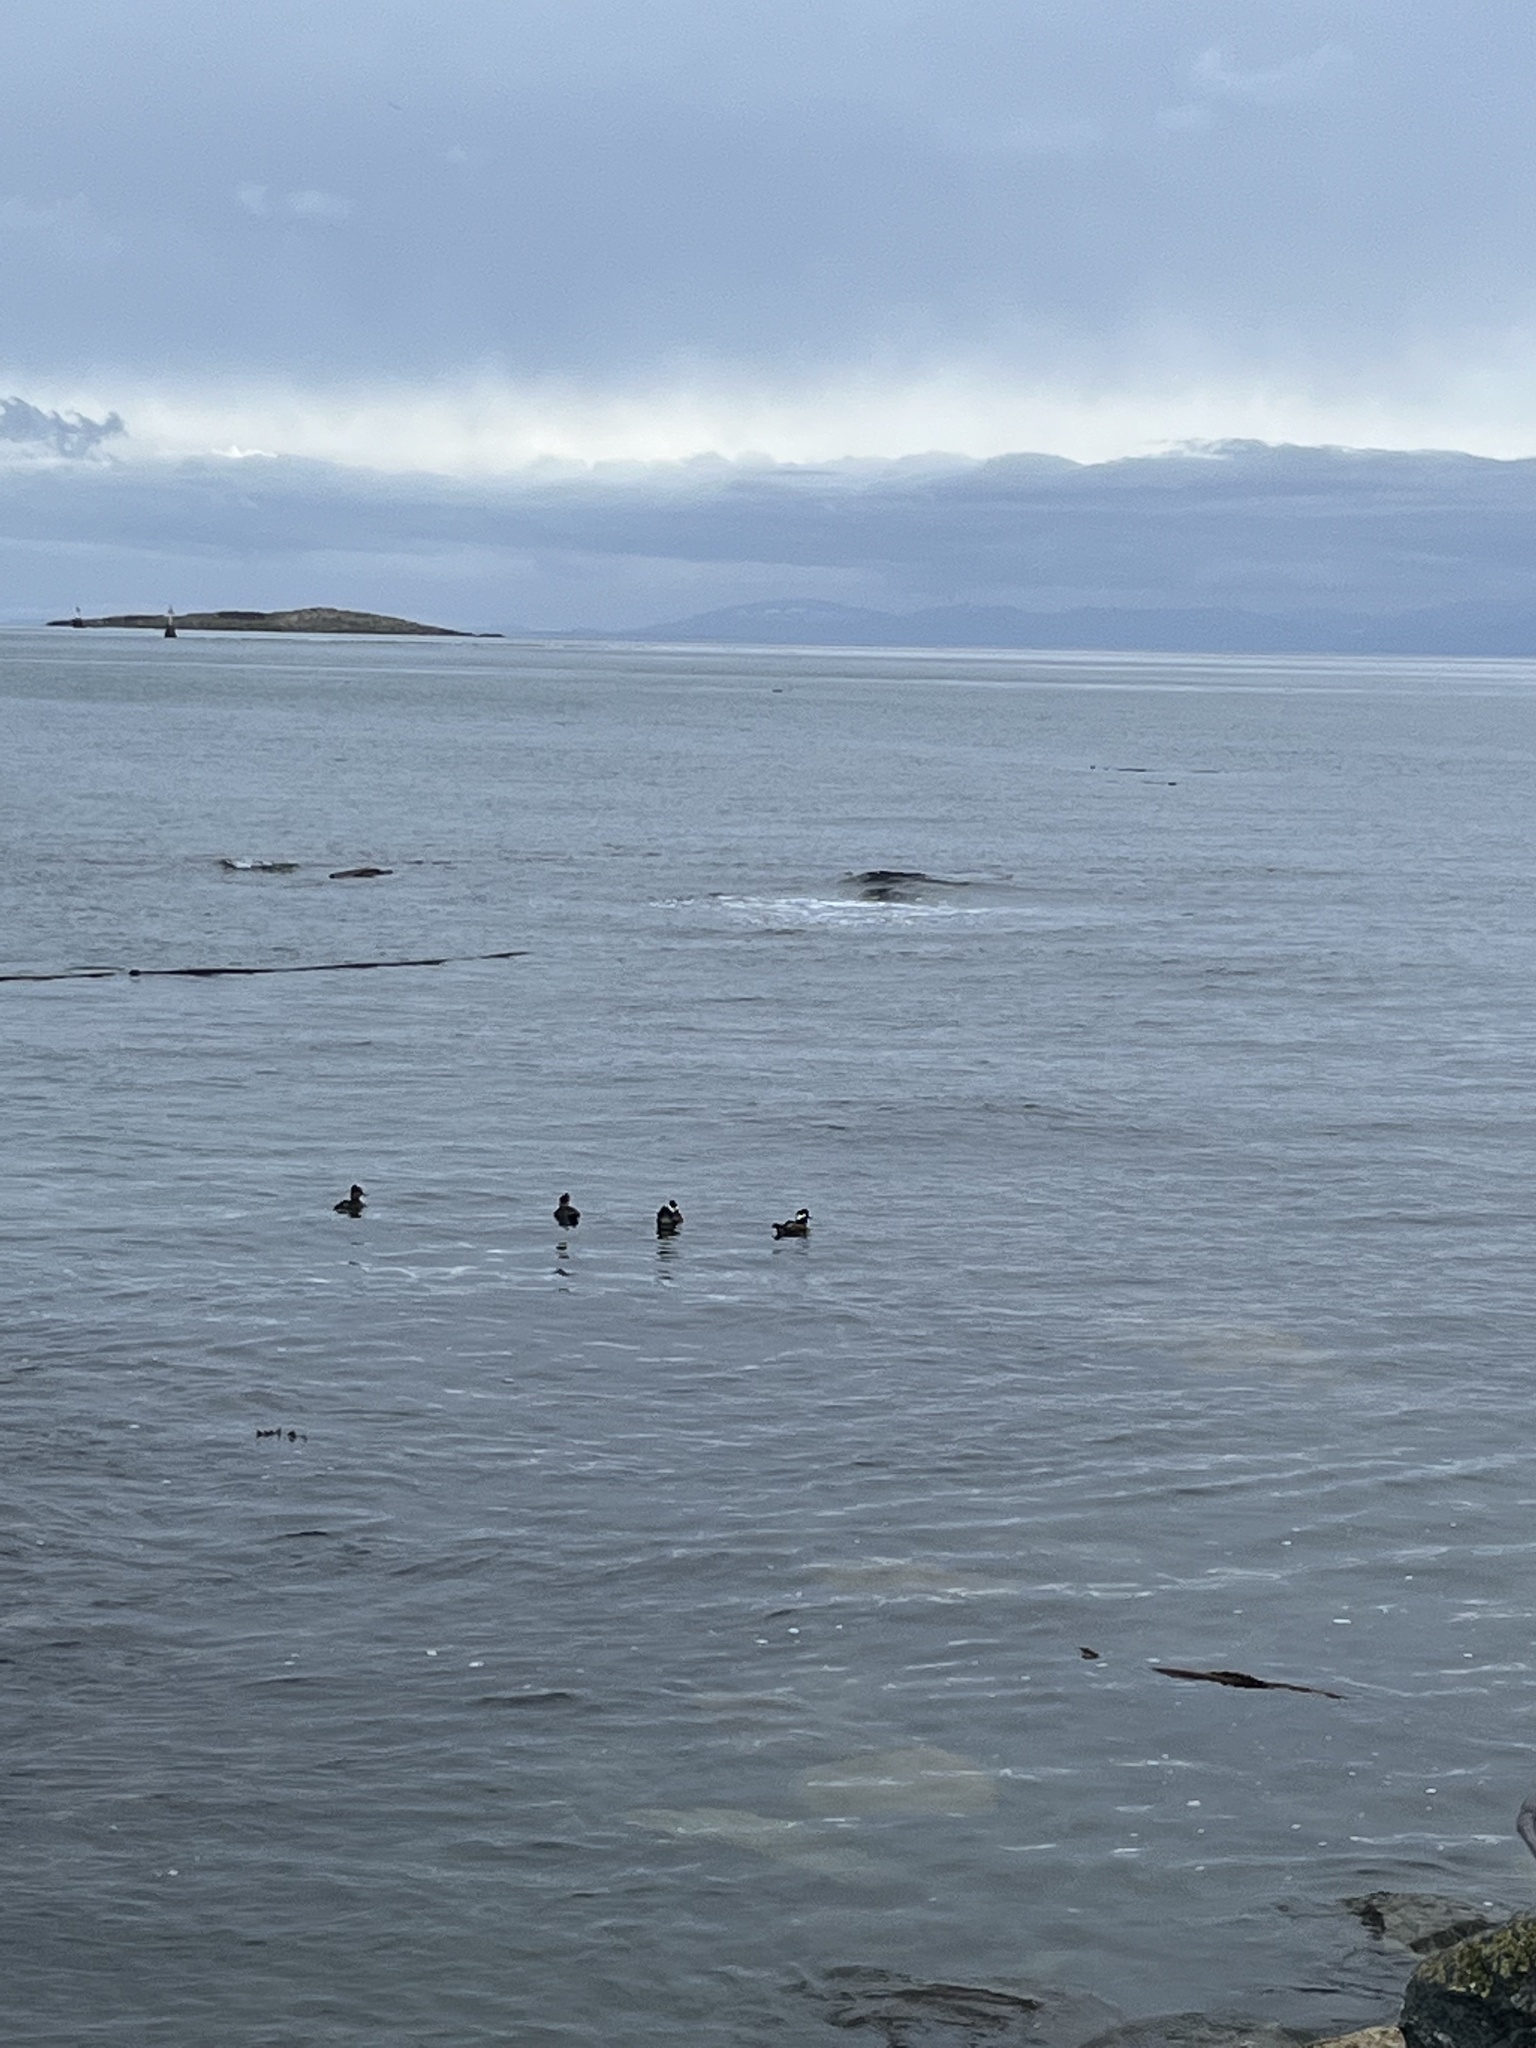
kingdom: Animalia
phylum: Chordata
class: Aves
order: Anseriformes
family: Anatidae
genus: Lophodytes
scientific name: Lophodytes cucullatus
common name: Hooded merganser
